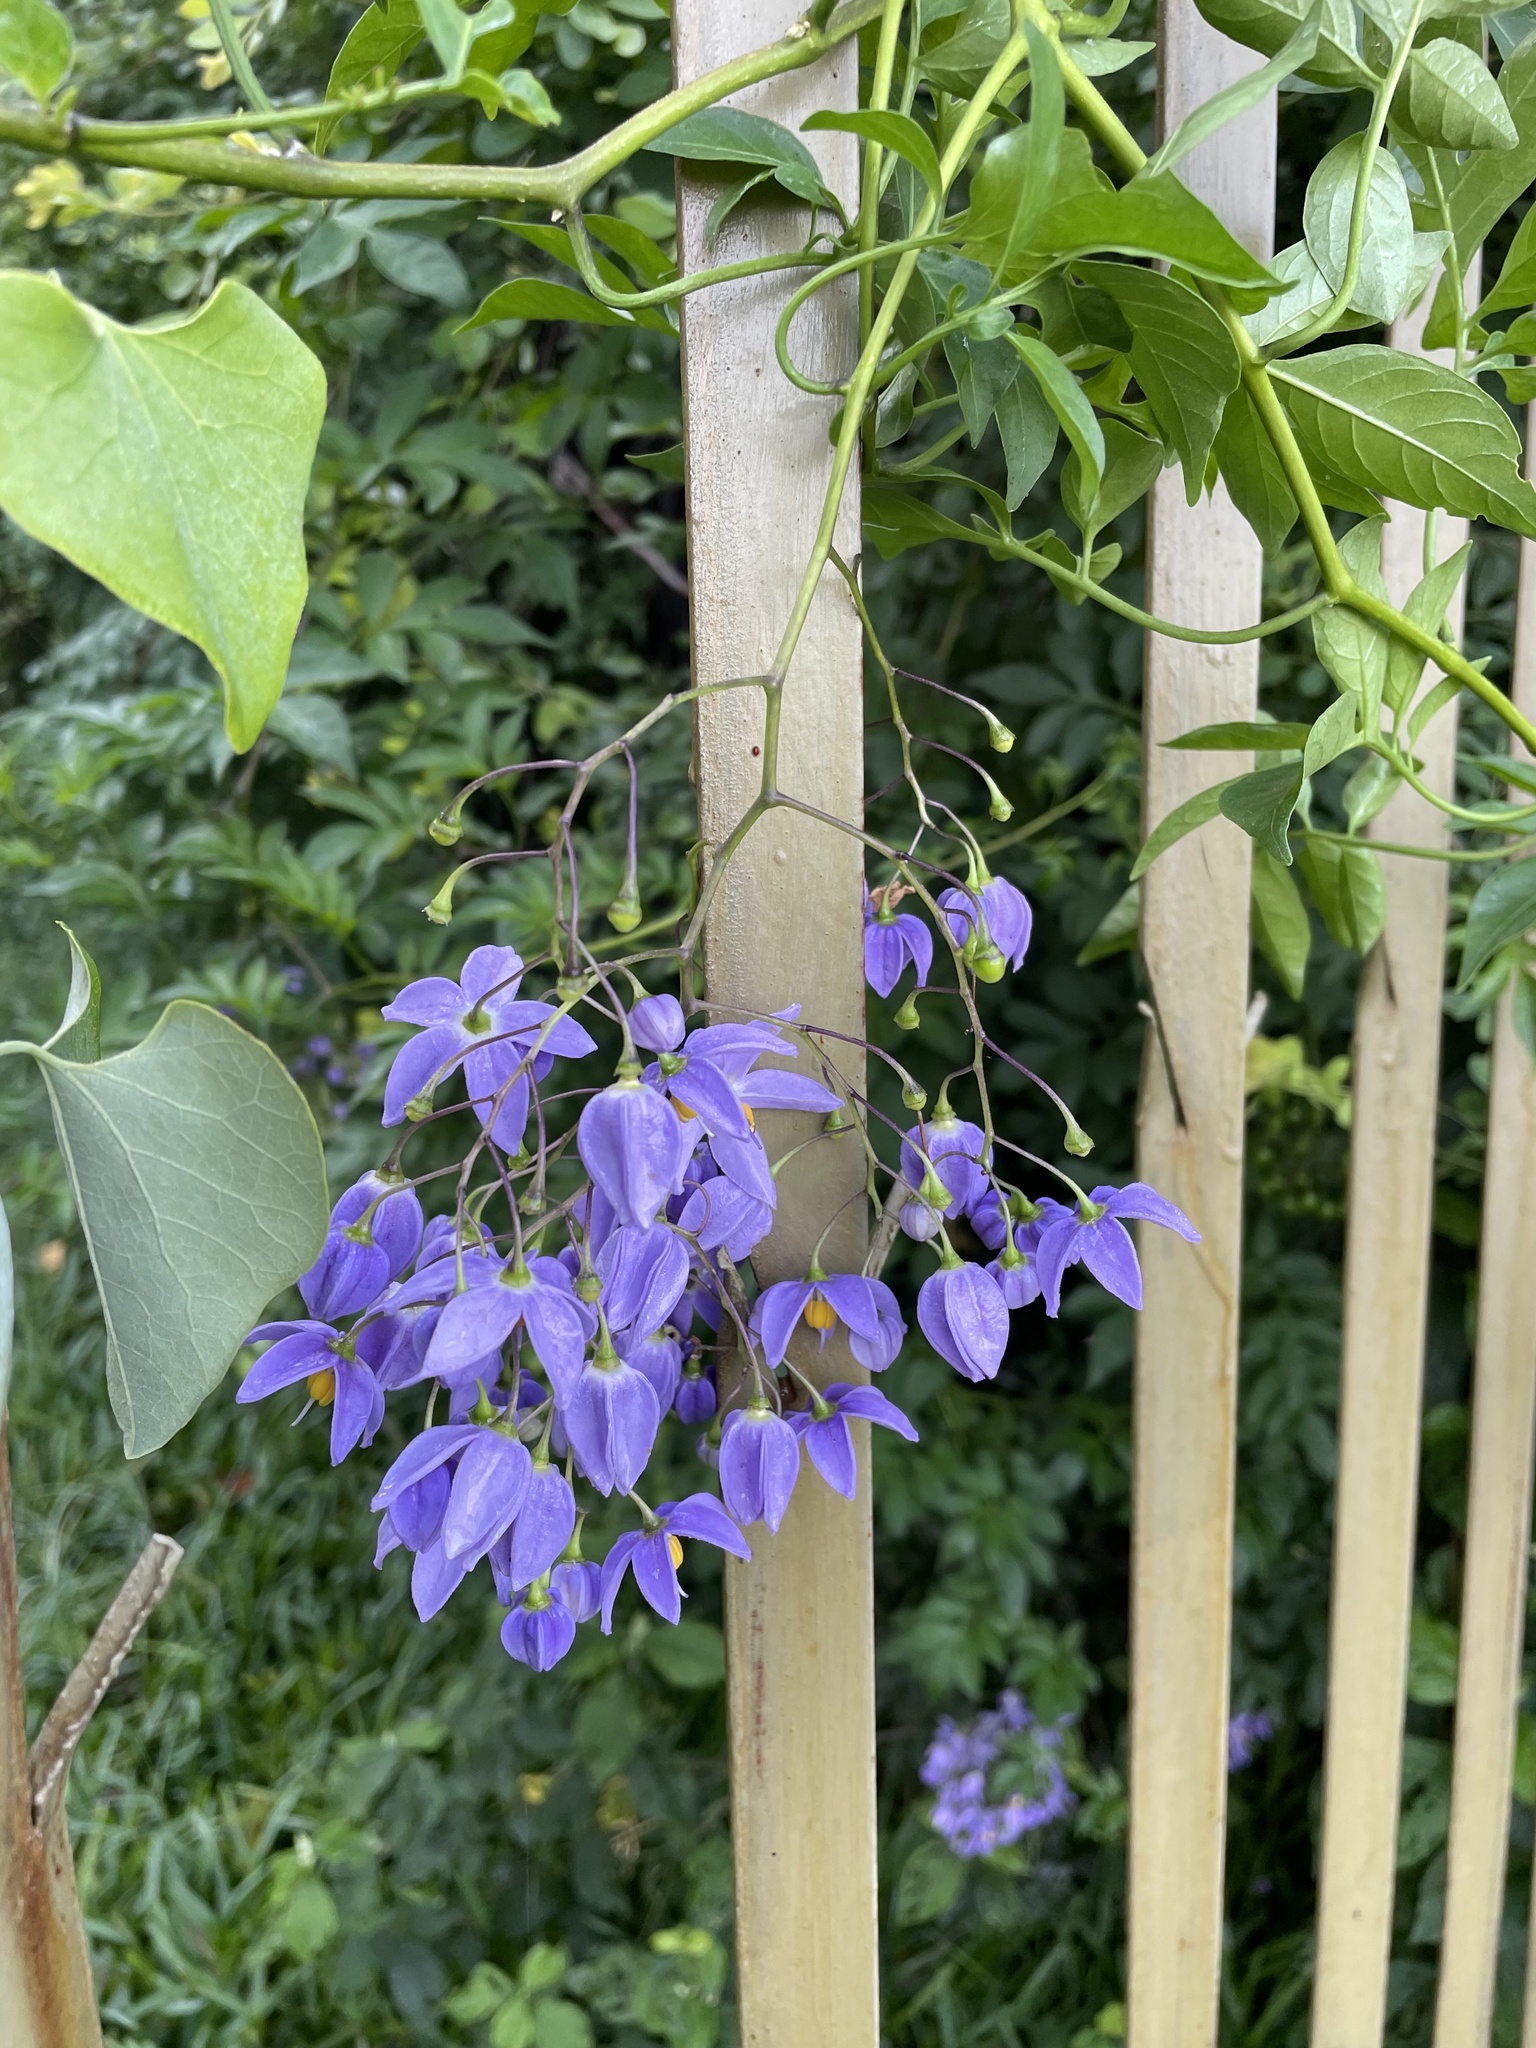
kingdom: Plantae
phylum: Tracheophyta
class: Magnoliopsida
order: Solanales
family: Solanaceae
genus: Solanum
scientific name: Solanum seaforthianum
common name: Brazilian nightshade
